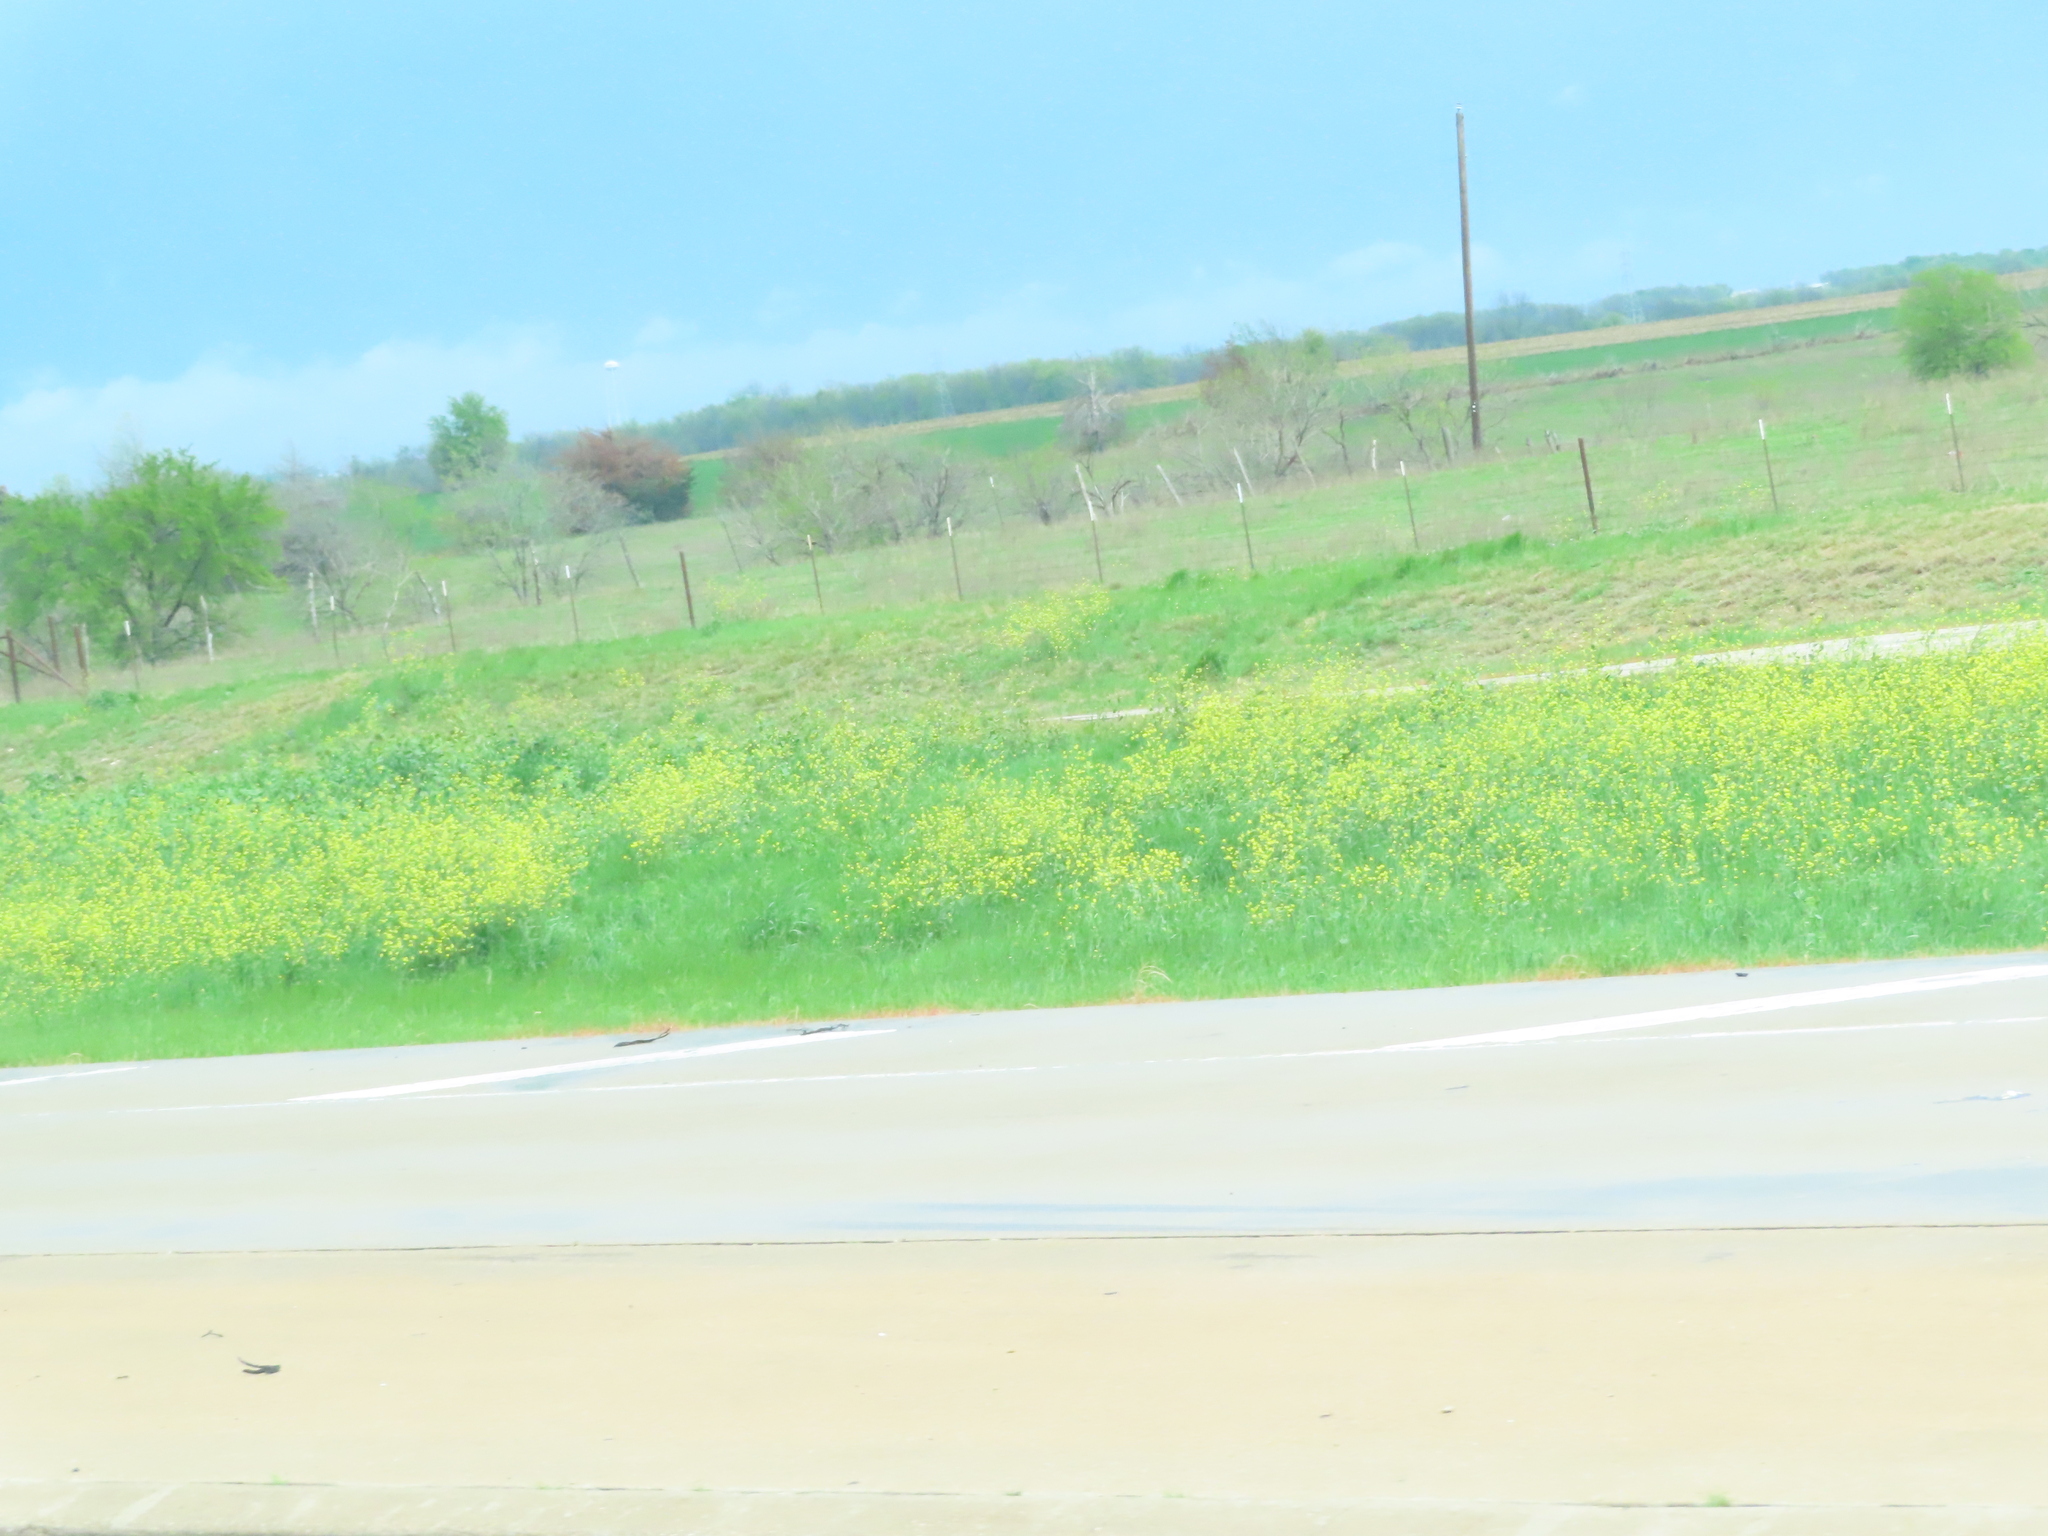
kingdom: Plantae
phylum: Tracheophyta
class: Magnoliopsida
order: Brassicales
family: Brassicaceae
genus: Rapistrum
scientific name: Rapistrum rugosum
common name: Annual bastardcabbage
